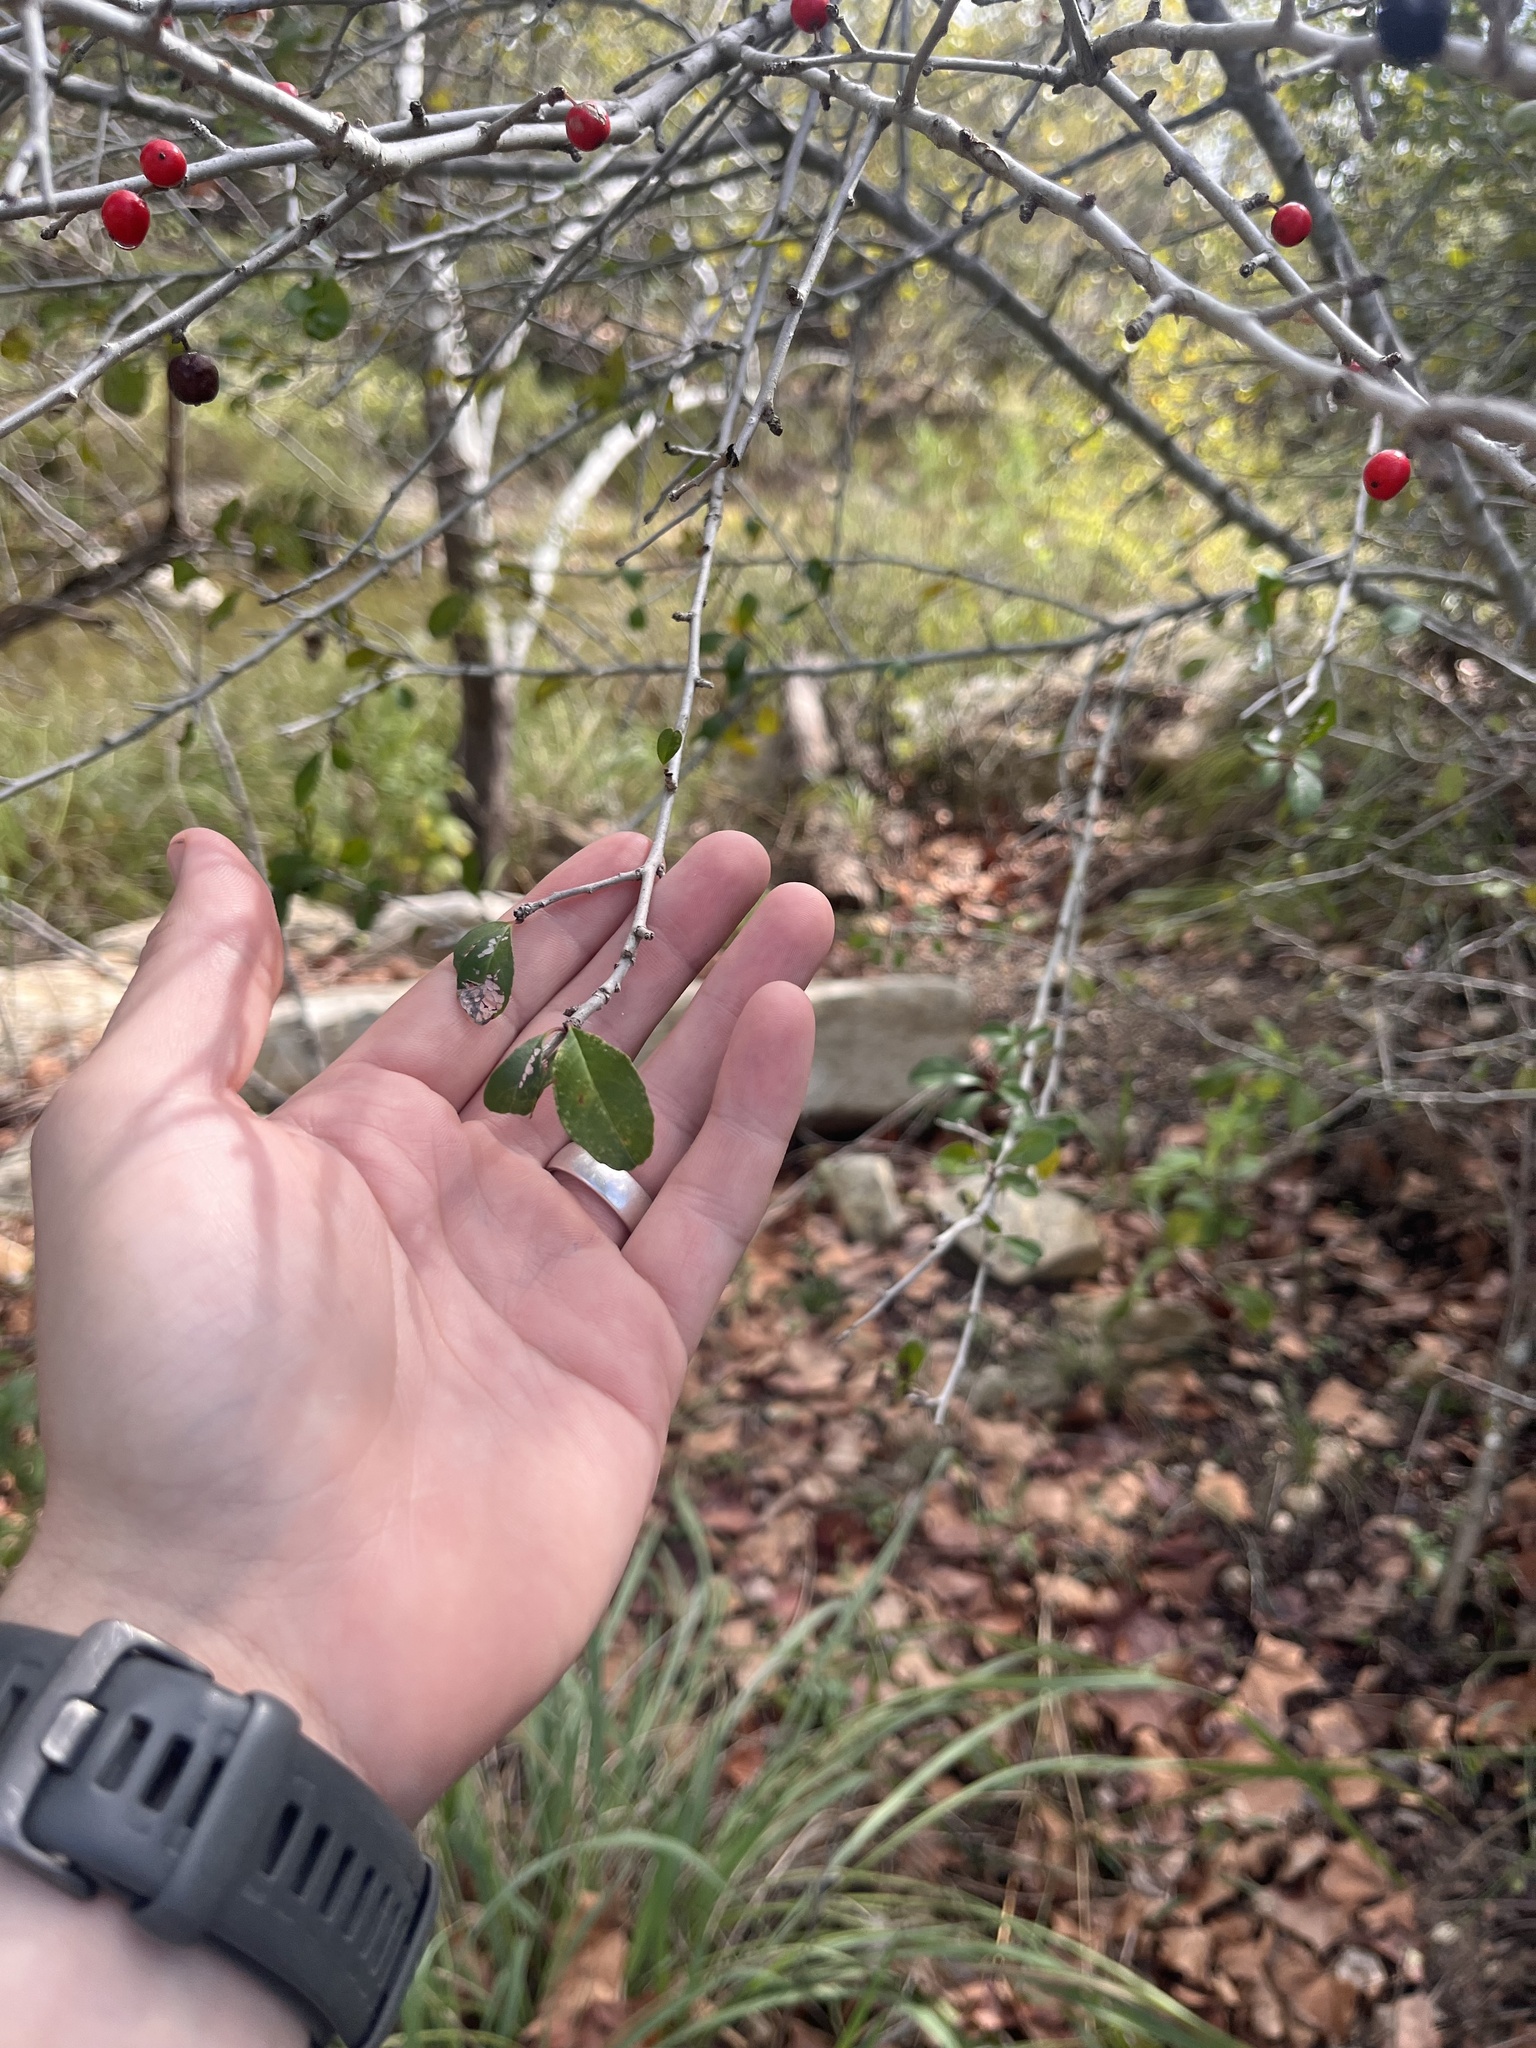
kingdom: Plantae
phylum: Tracheophyta
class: Magnoliopsida
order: Aquifoliales
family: Aquifoliaceae
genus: Ilex
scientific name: Ilex decidua
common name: Possum-haw
